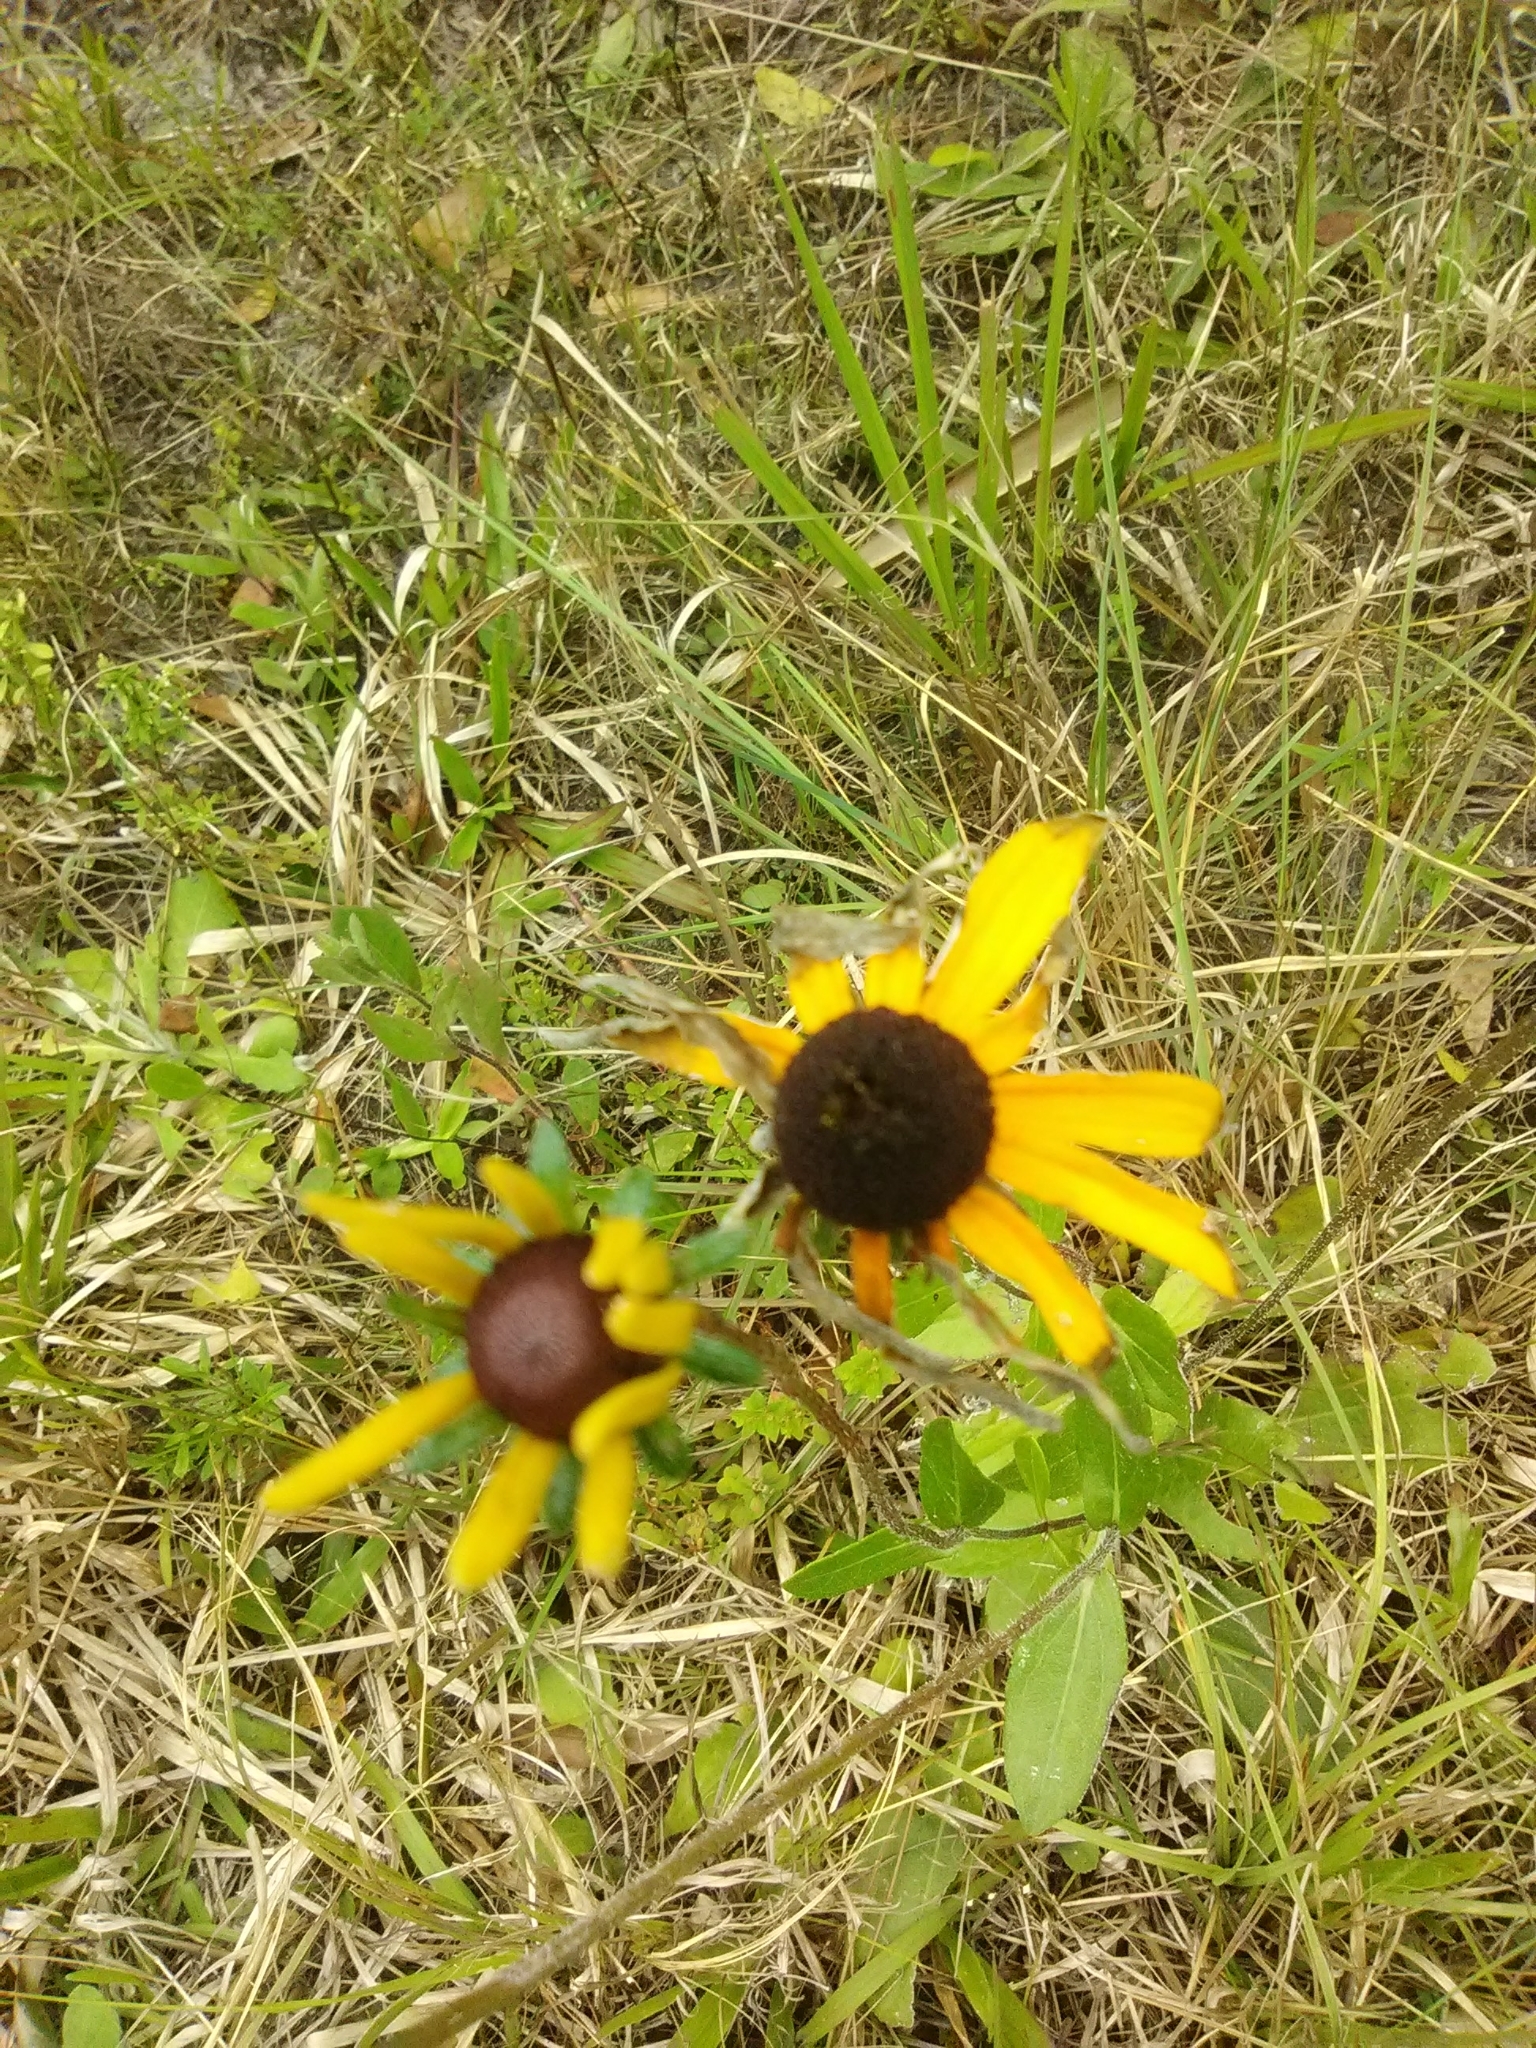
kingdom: Plantae
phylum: Tracheophyta
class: Magnoliopsida
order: Asterales
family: Asteraceae
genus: Rudbeckia
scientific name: Rudbeckia hirta
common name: Black-eyed-susan
